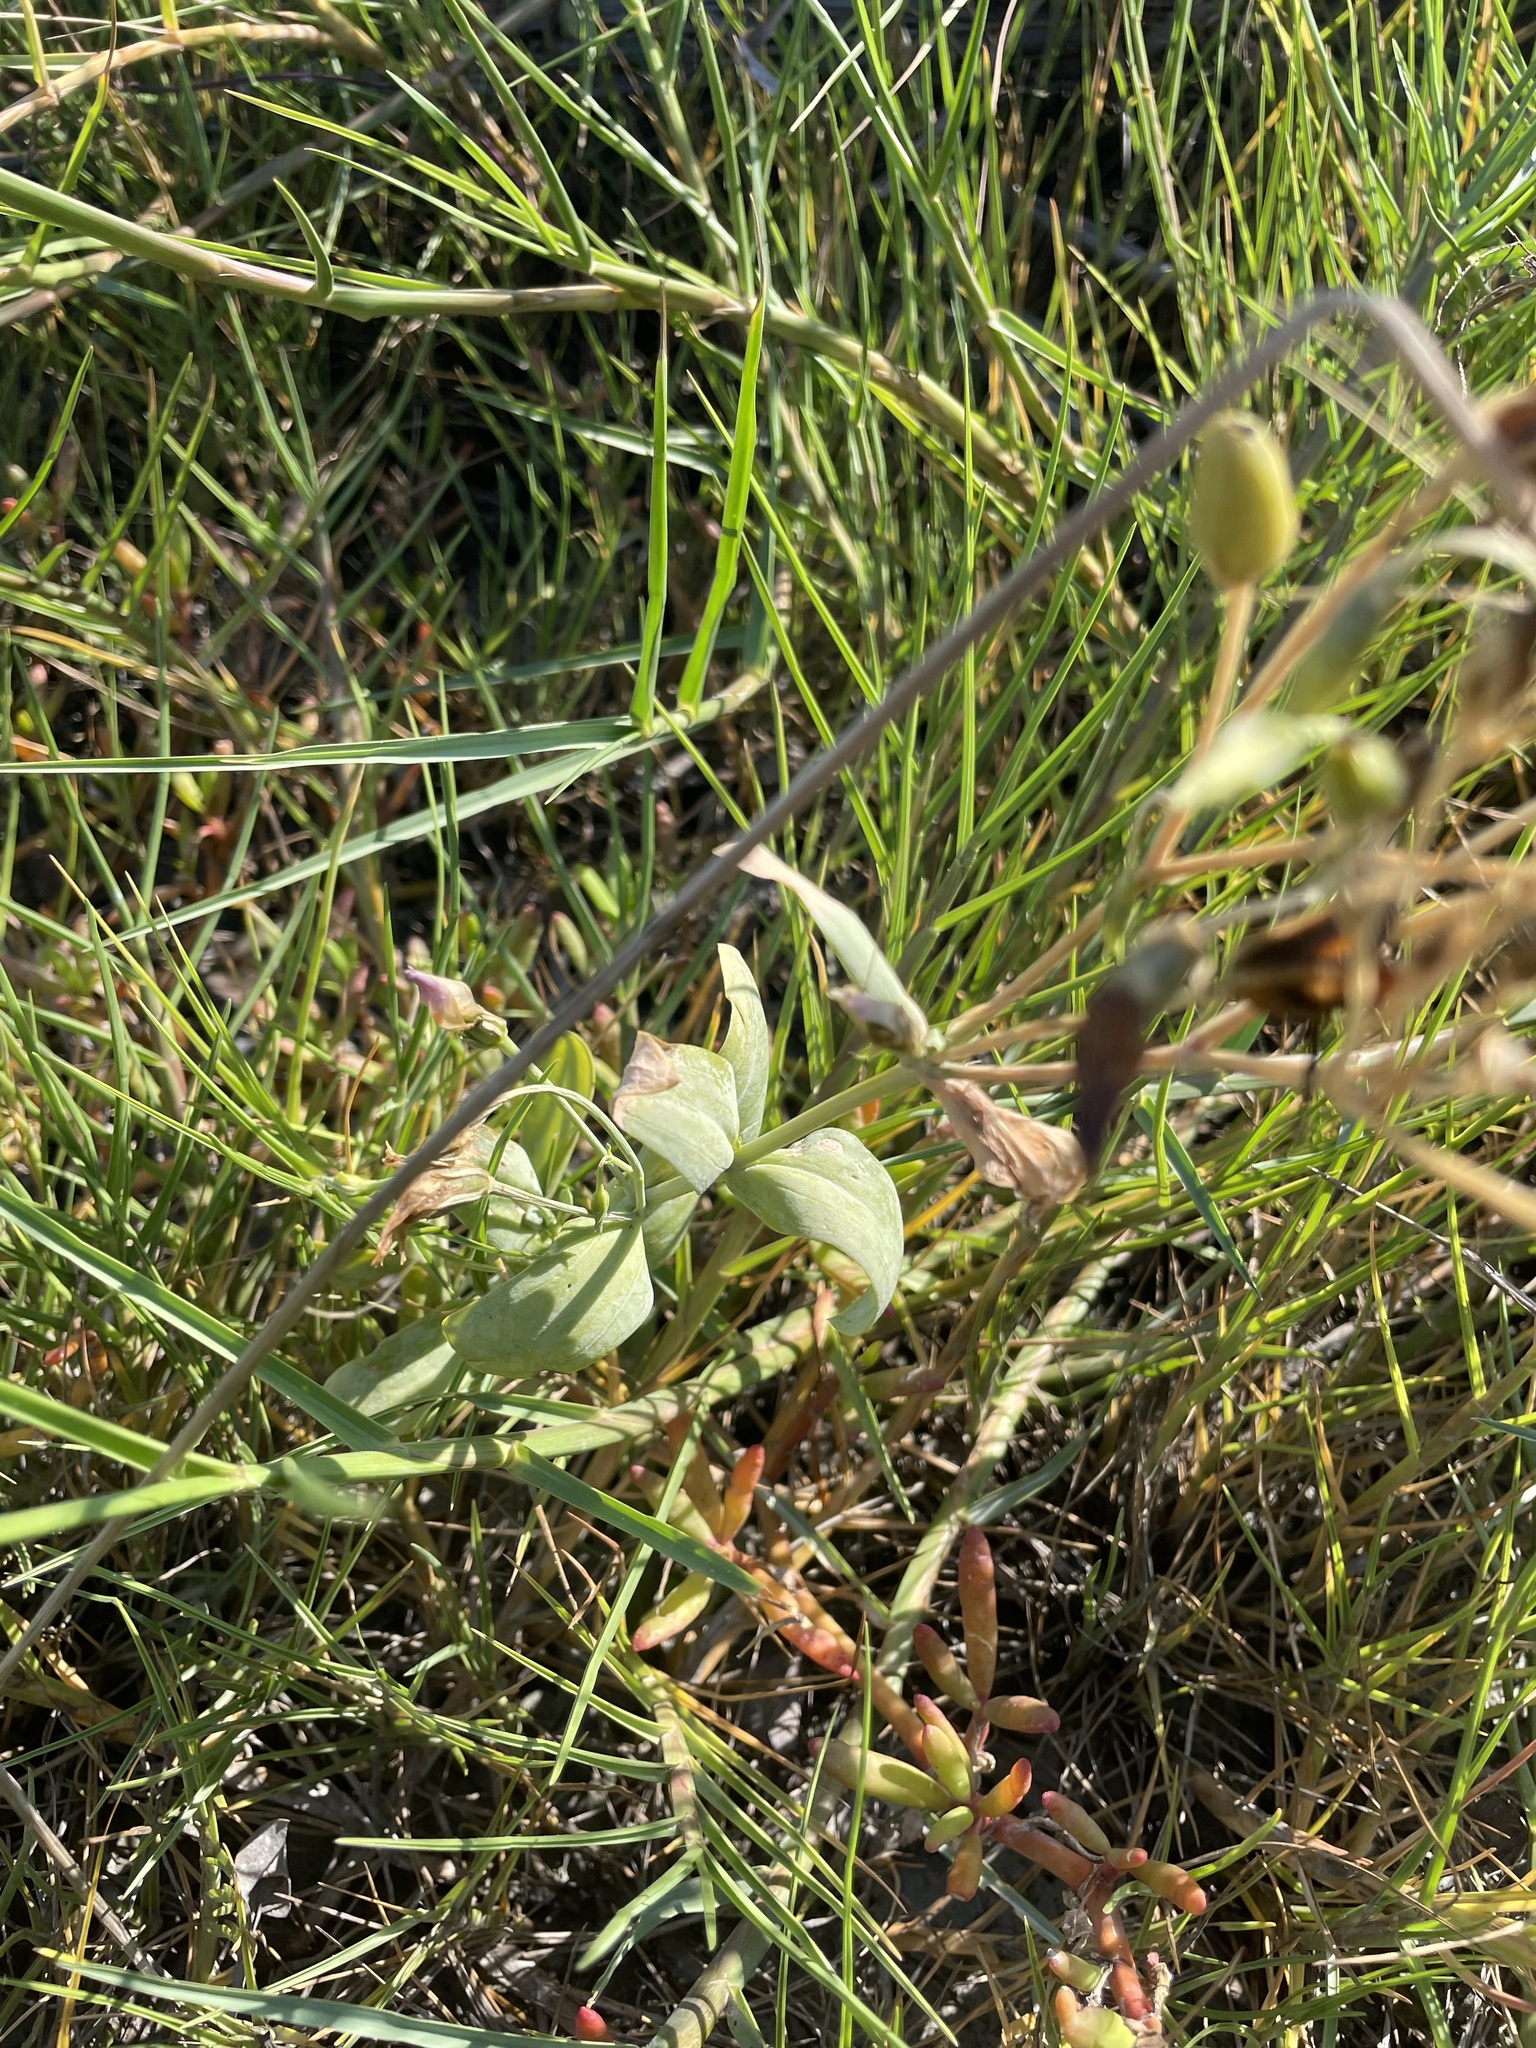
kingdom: Plantae
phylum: Tracheophyta
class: Magnoliopsida
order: Gentianales
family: Gentianaceae
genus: Eustoma
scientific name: Eustoma exaltatum
